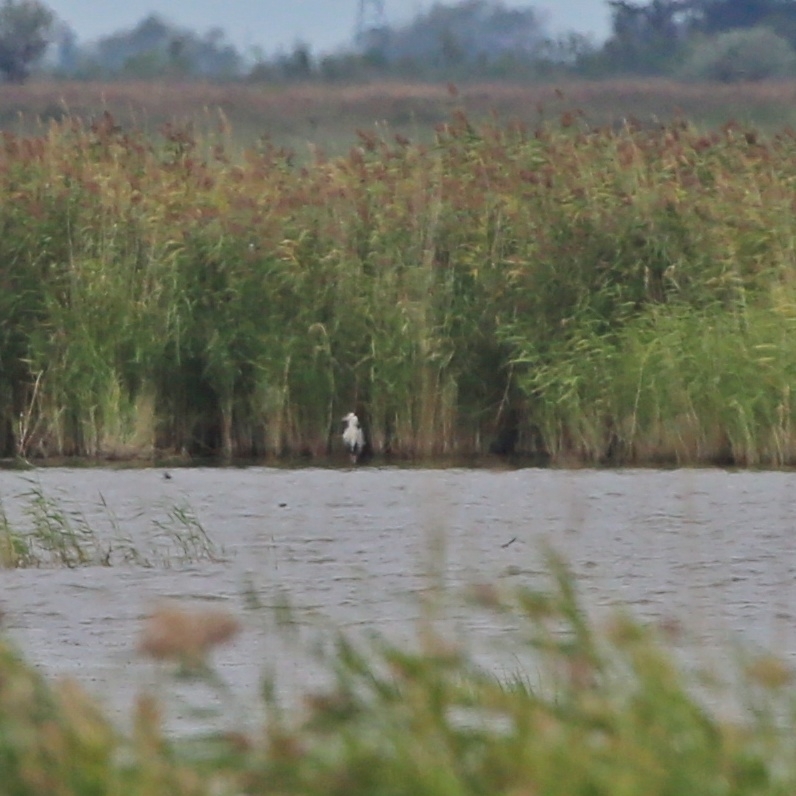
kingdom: Animalia
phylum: Chordata
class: Aves
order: Pelecaniformes
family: Ardeidae
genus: Ardea
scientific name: Ardea cinerea
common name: Grey heron
